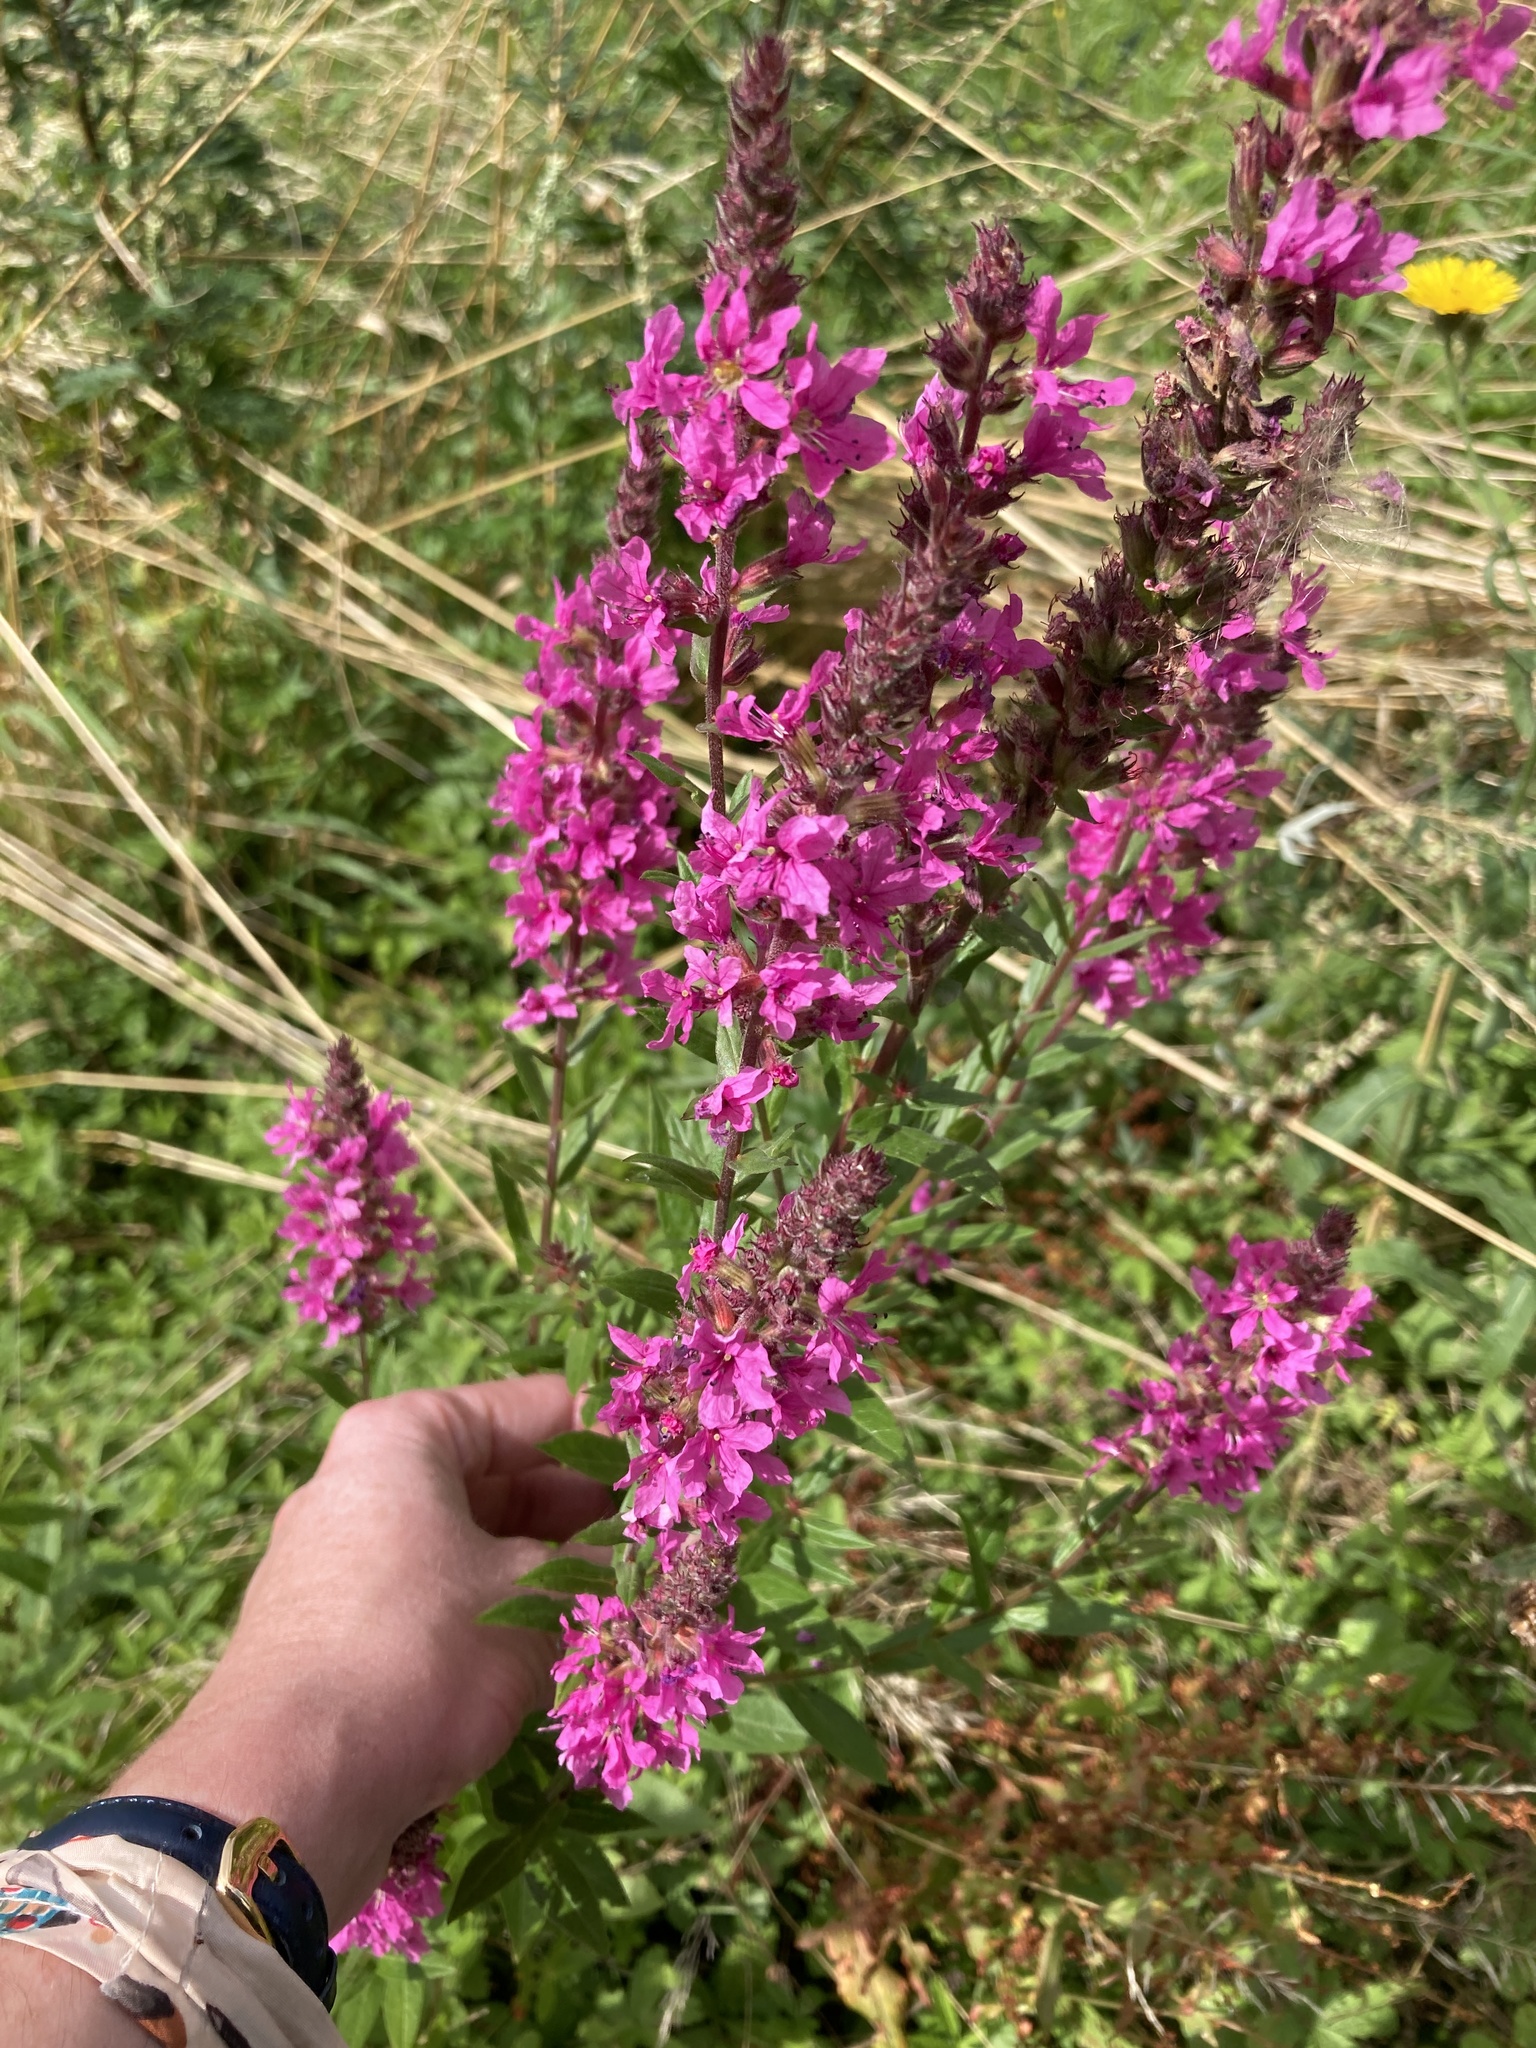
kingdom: Plantae
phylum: Tracheophyta
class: Magnoliopsida
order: Myrtales
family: Lythraceae
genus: Lythrum
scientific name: Lythrum salicaria
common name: Purple loosestrife
